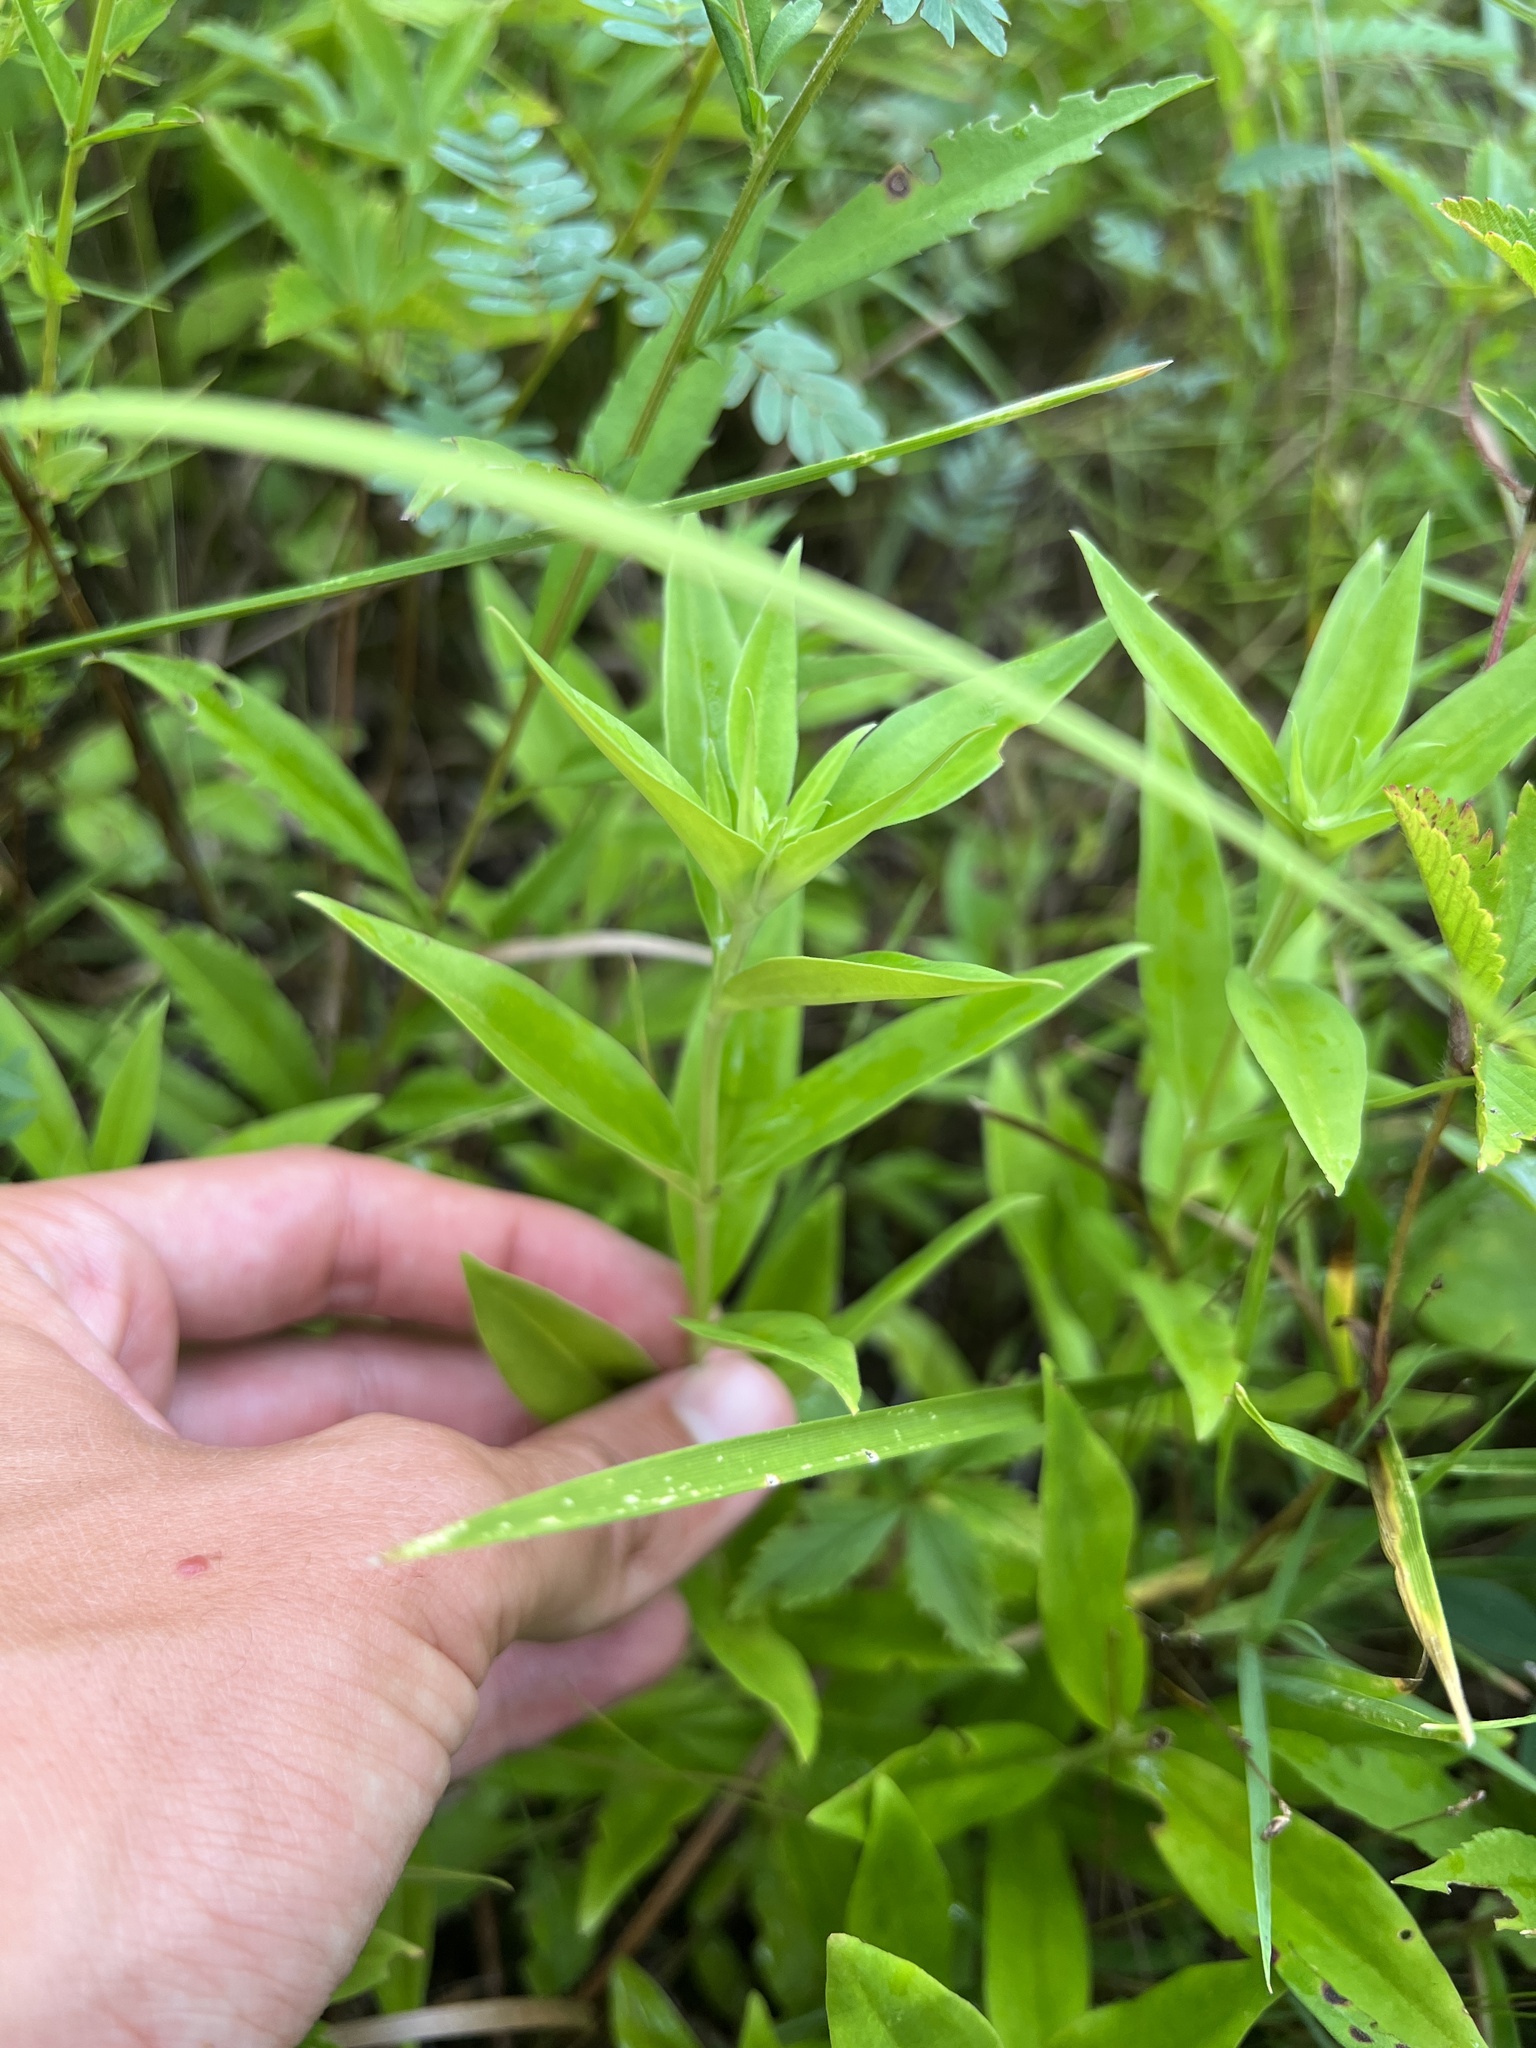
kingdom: Plantae
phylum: Tracheophyta
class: Magnoliopsida
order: Gentianales
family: Gentianaceae
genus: Gentiana
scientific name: Gentiana puberulenta
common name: Downy gentian
